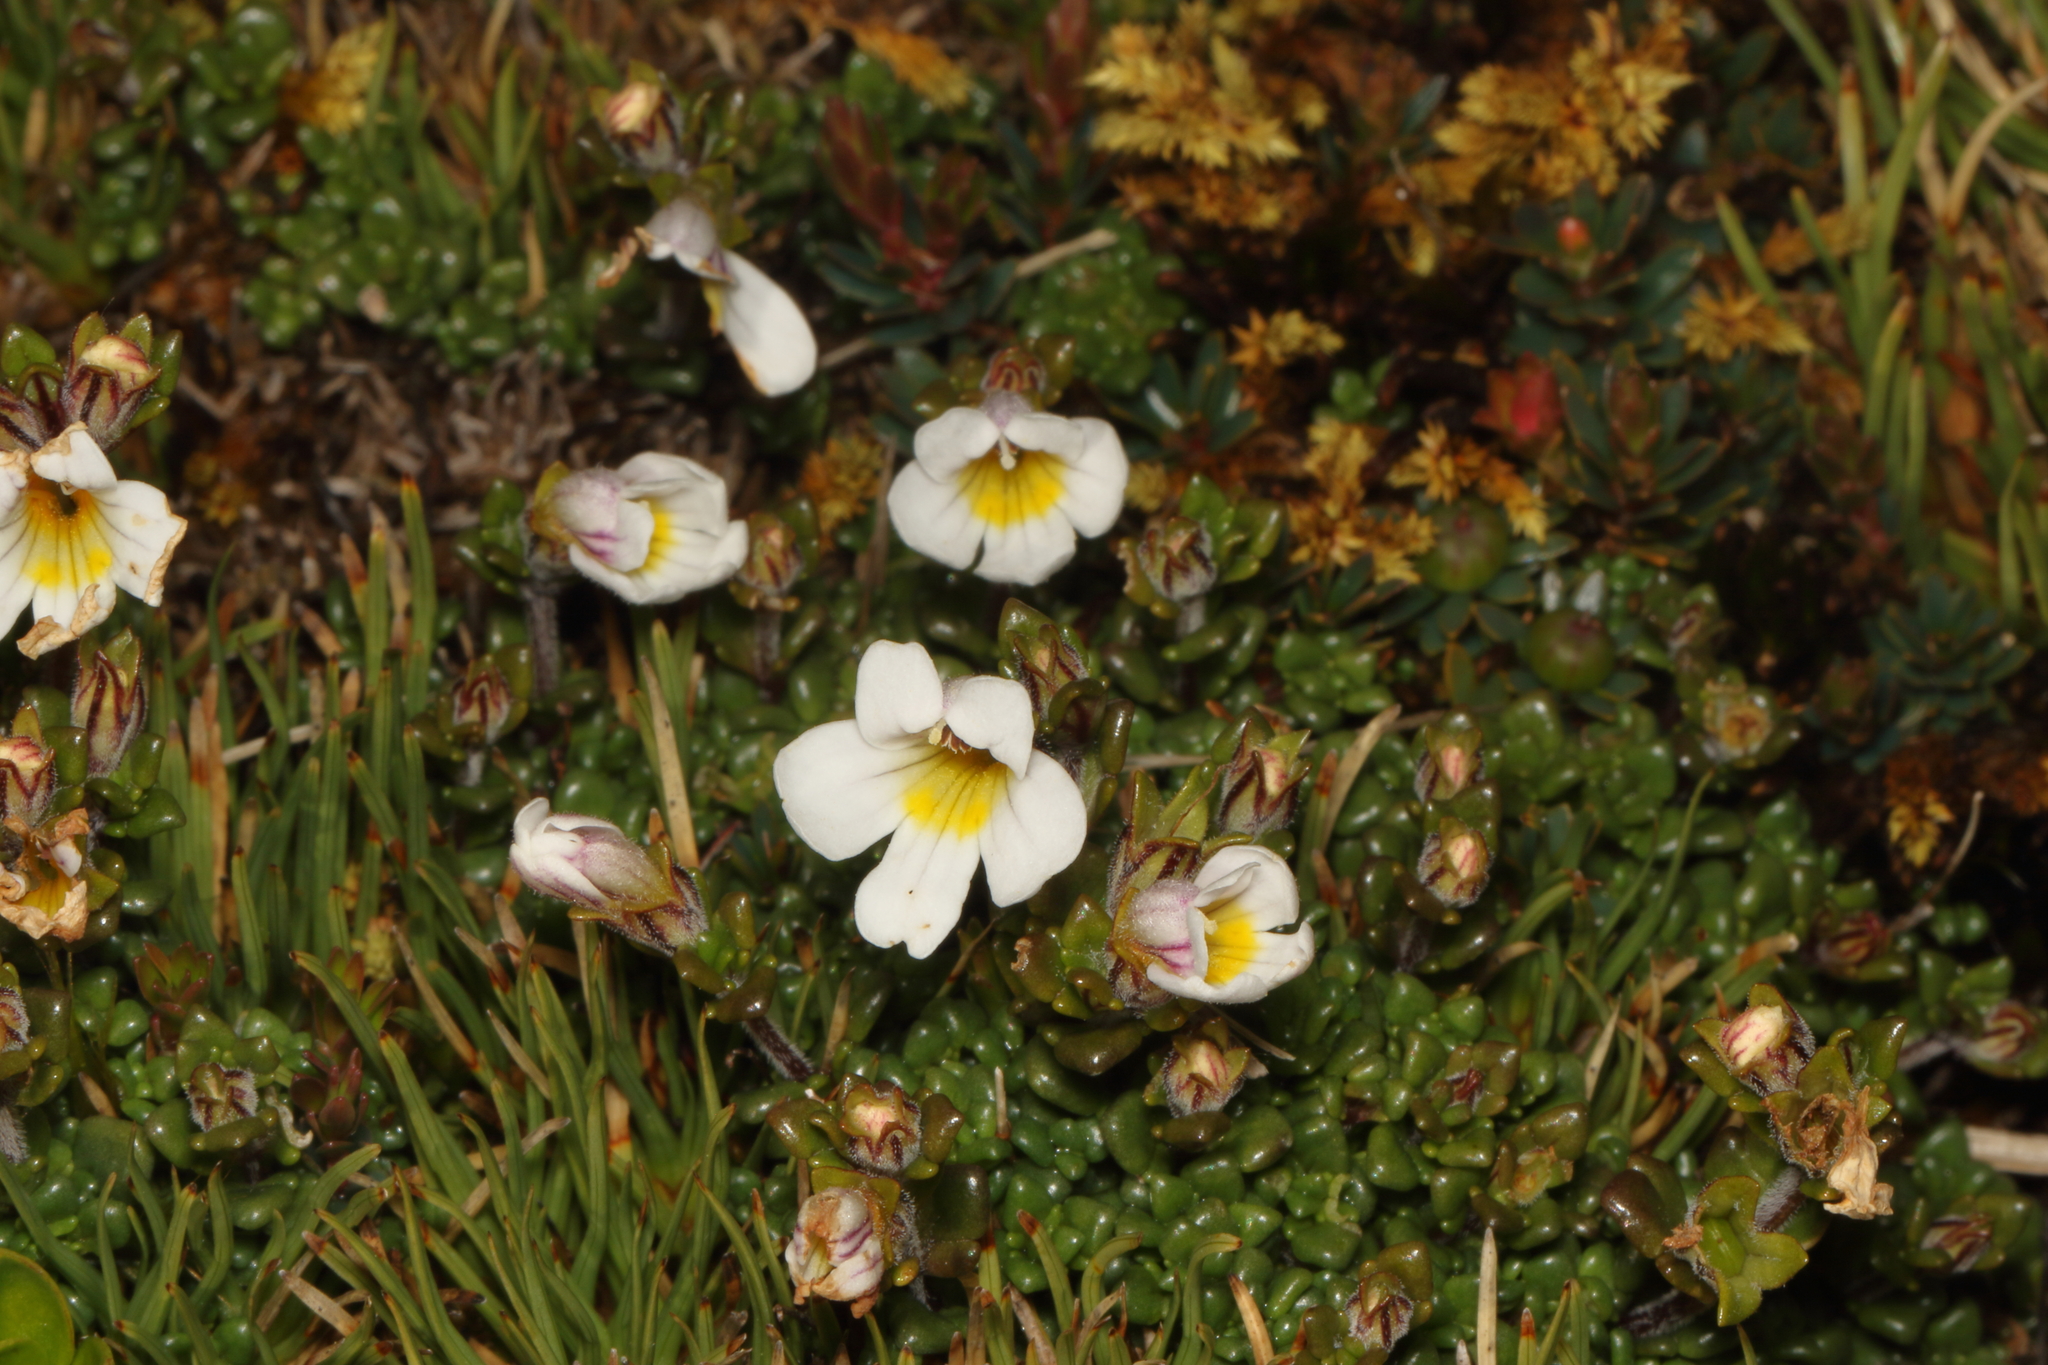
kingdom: Plantae
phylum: Tracheophyta
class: Magnoliopsida
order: Lamiales
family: Orobanchaceae
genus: Euphrasia
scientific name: Euphrasia revoluta
